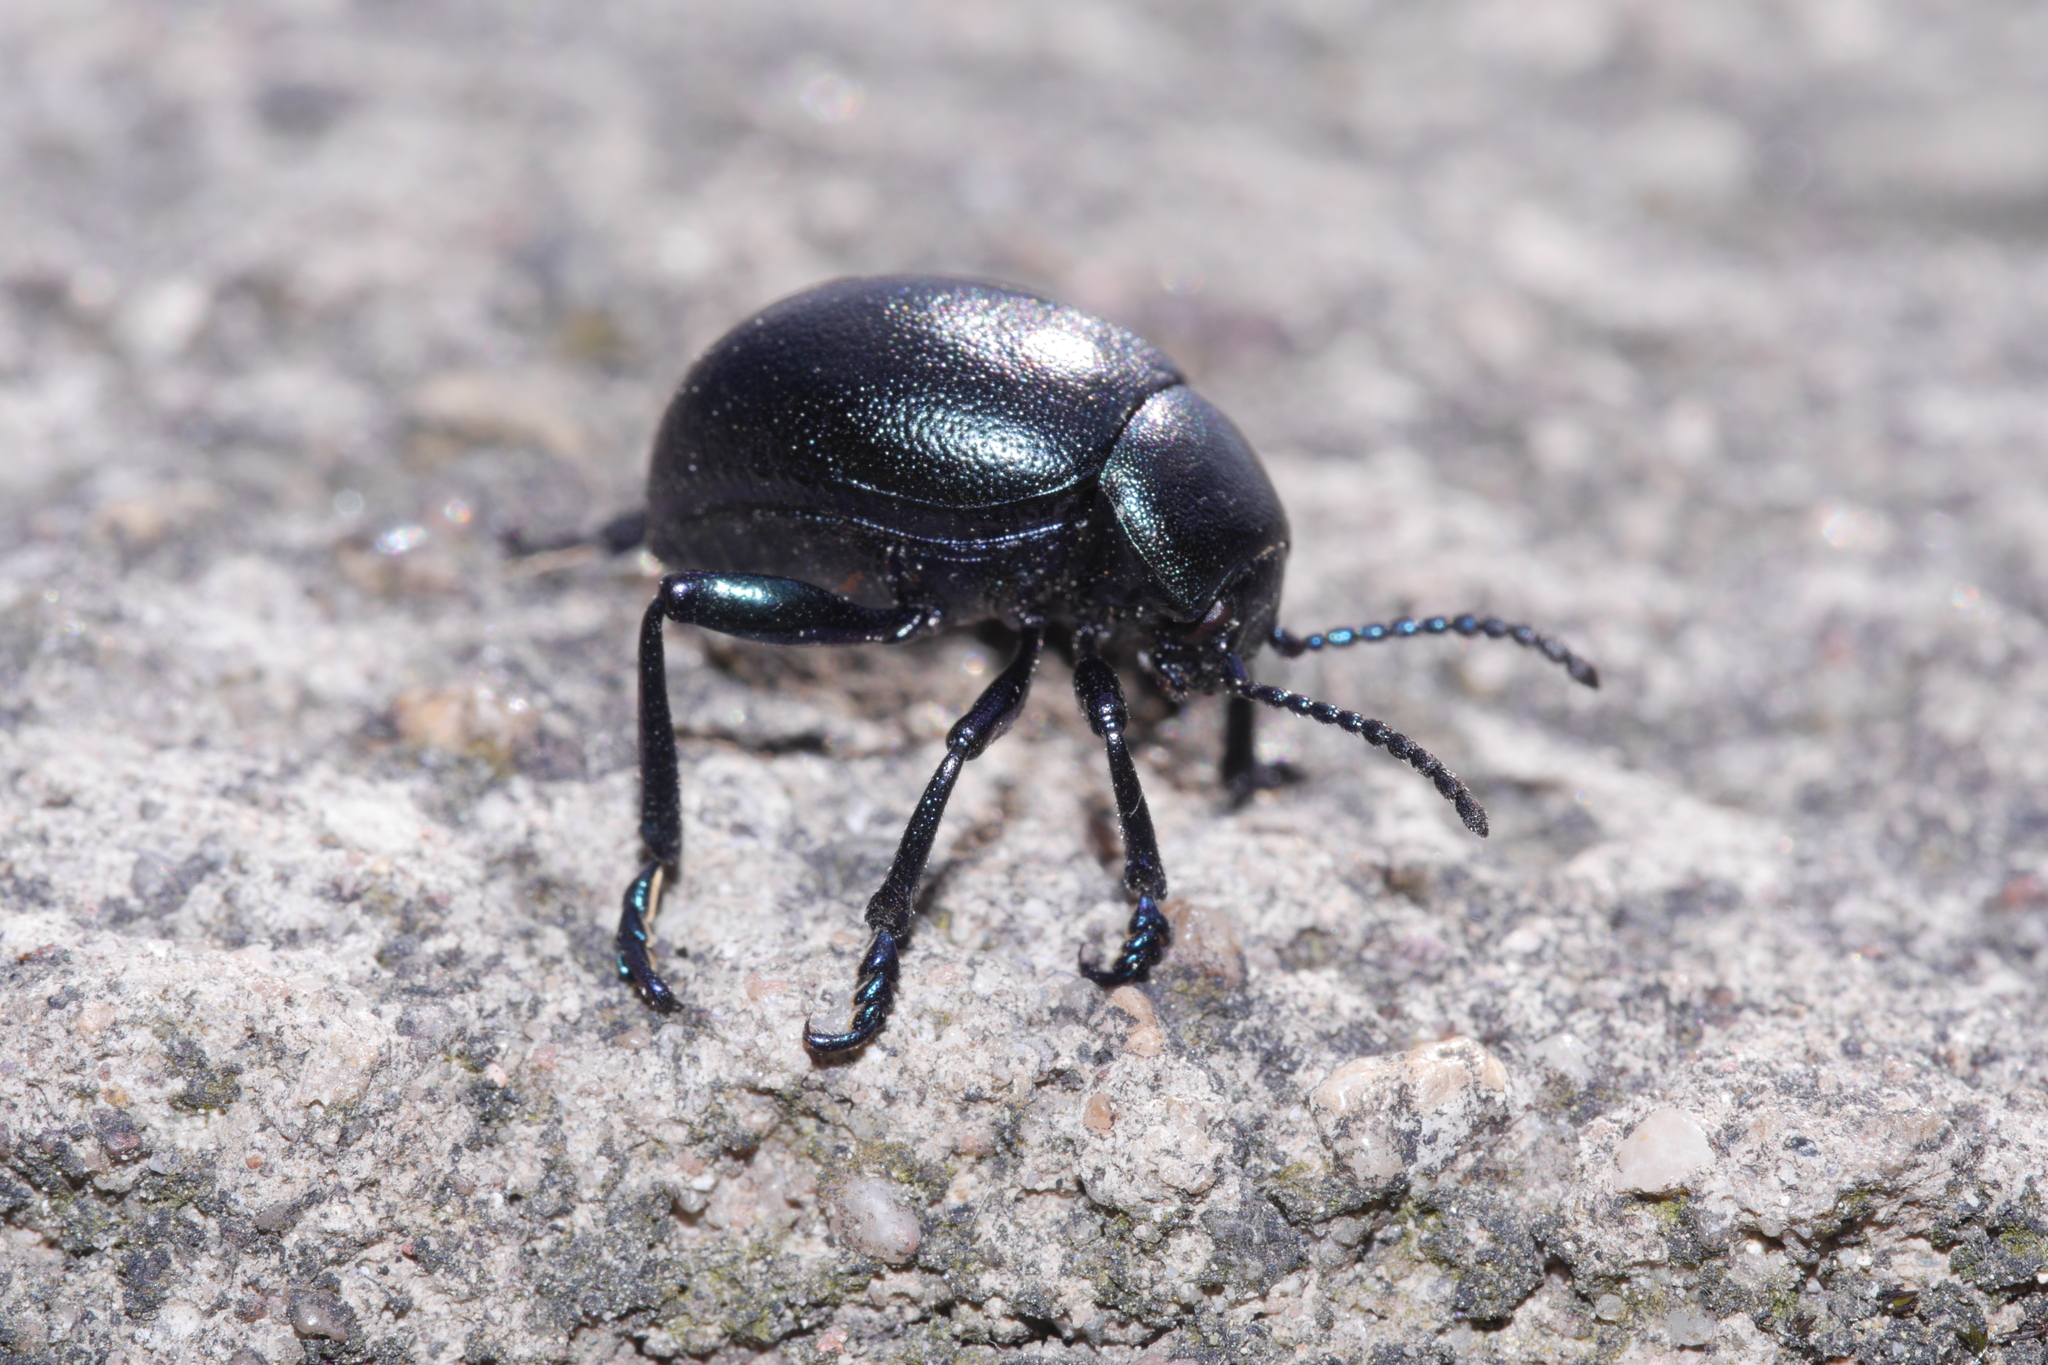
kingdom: Animalia
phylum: Arthropoda
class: Insecta
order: Coleoptera
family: Chrysomelidae
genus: Timarcha
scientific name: Timarcha goettingensis
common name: Small bloody-nosed beetle
